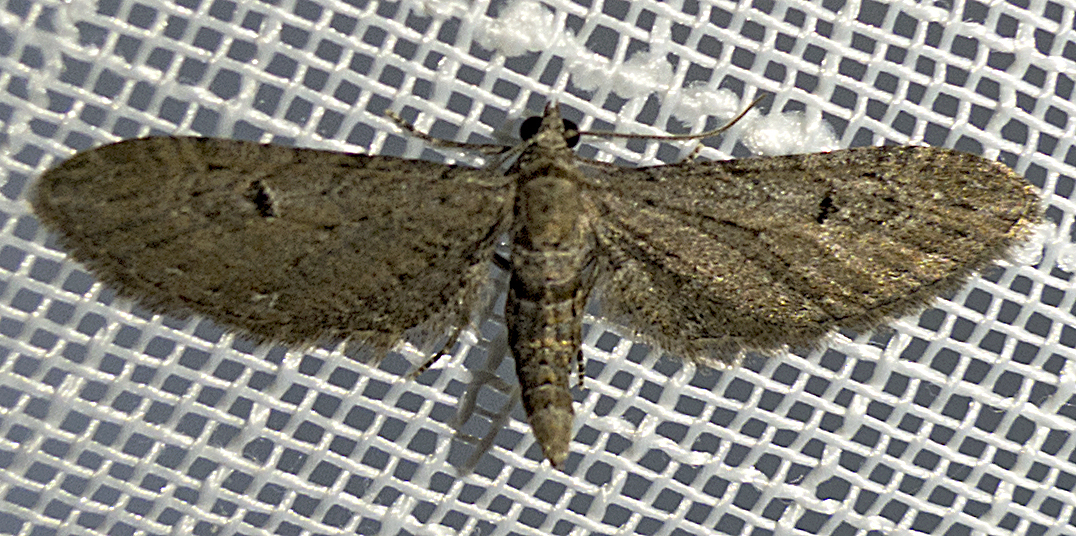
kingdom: Animalia
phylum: Arthropoda
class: Insecta
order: Lepidoptera
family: Geometridae
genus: Eupithecia
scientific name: Eupithecia innotata
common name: Angle-barred pug
